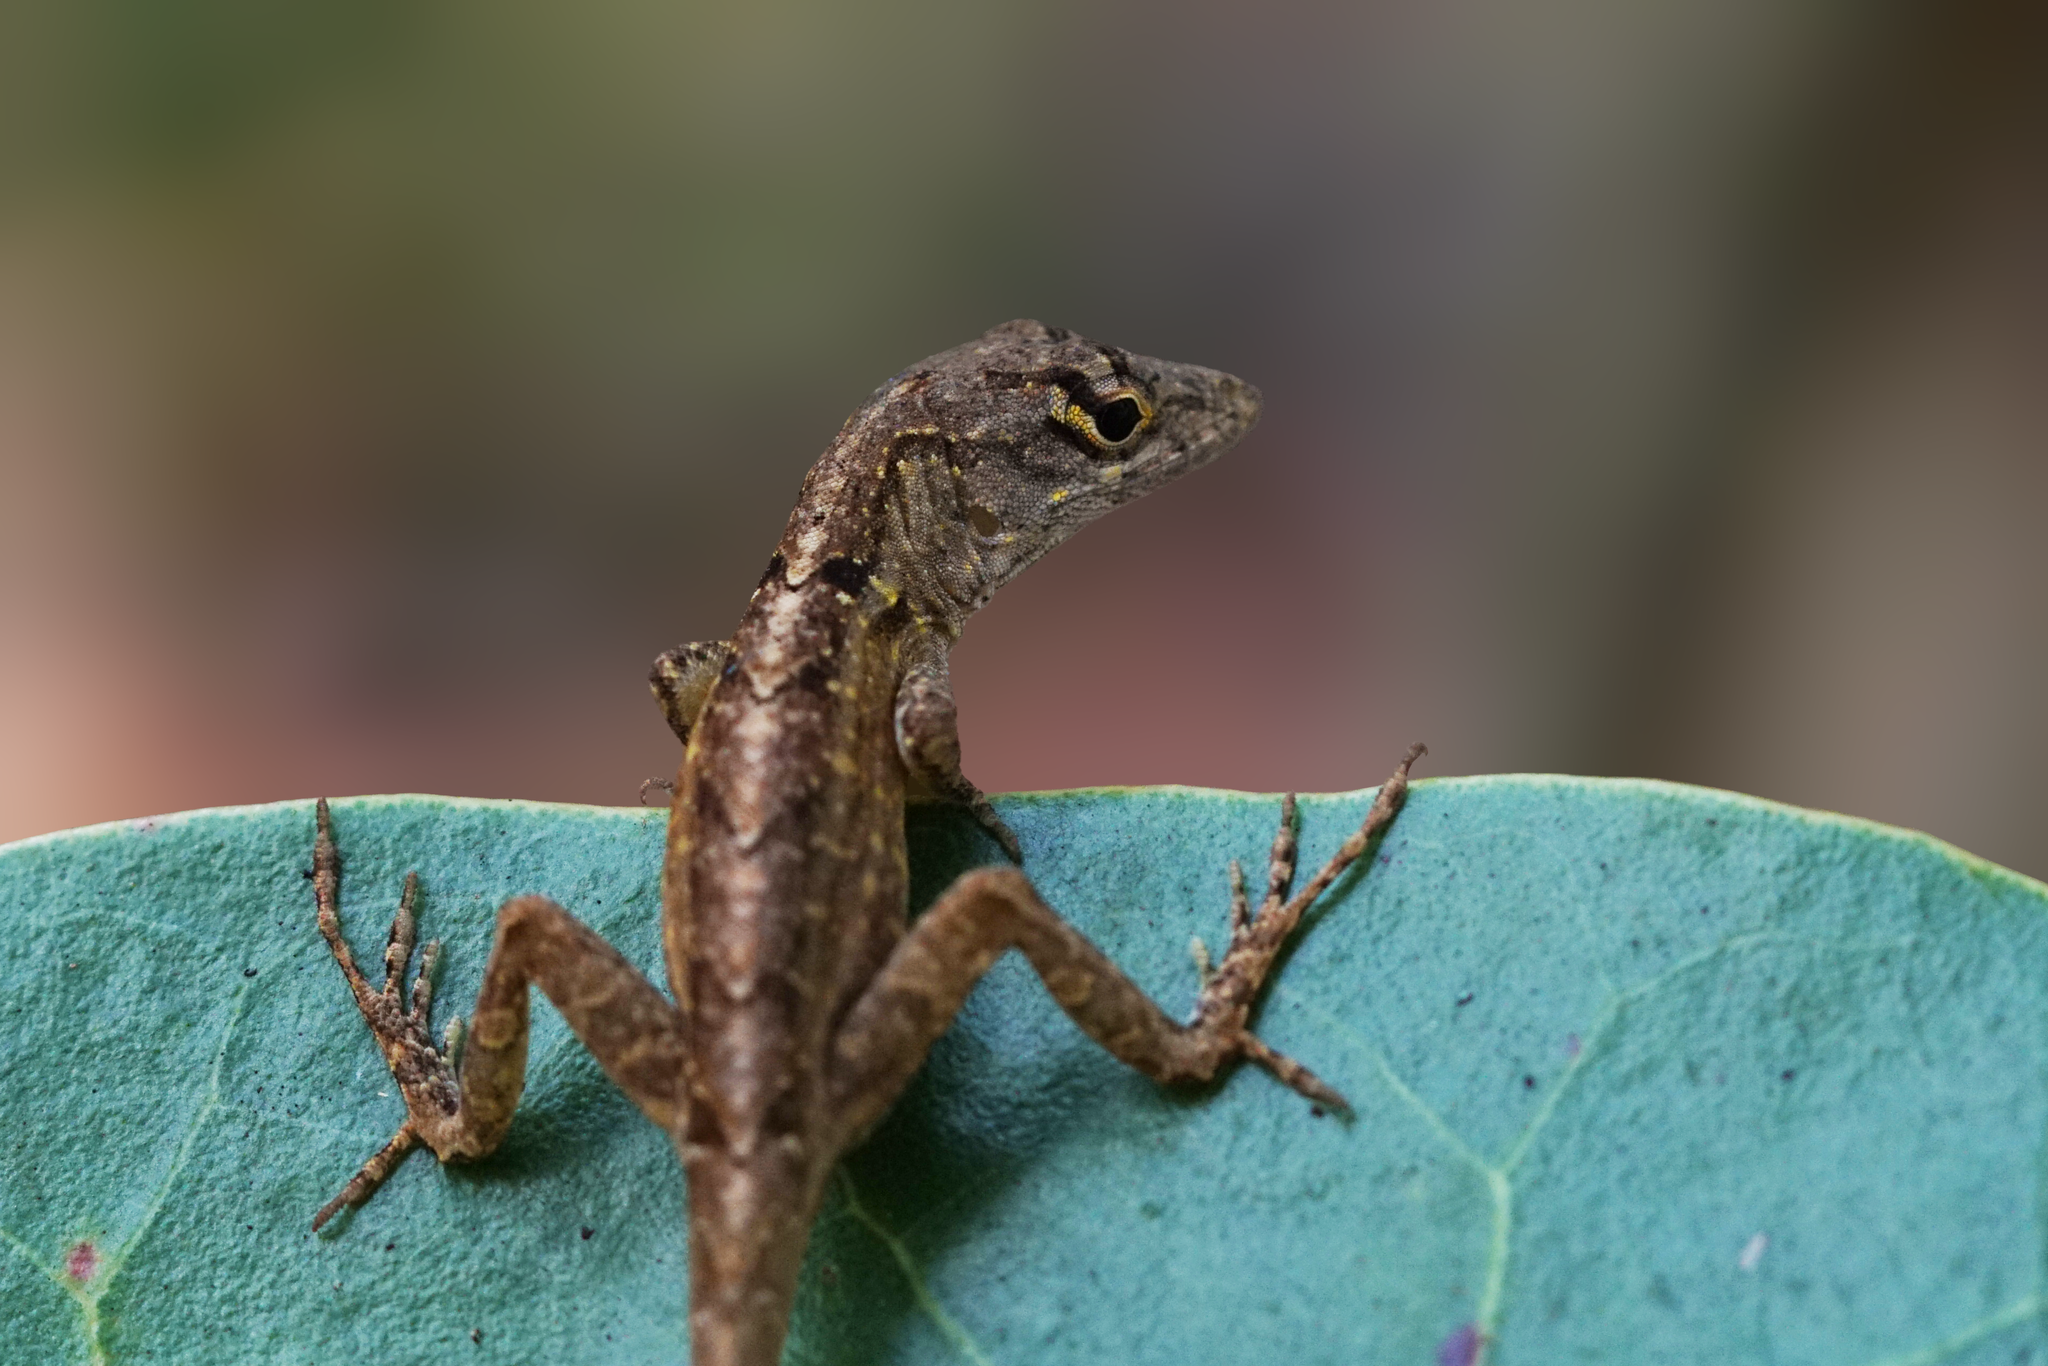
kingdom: Animalia
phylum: Chordata
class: Squamata
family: Dactyloidae
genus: Anolis
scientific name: Anolis sagrei
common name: Brown anole
